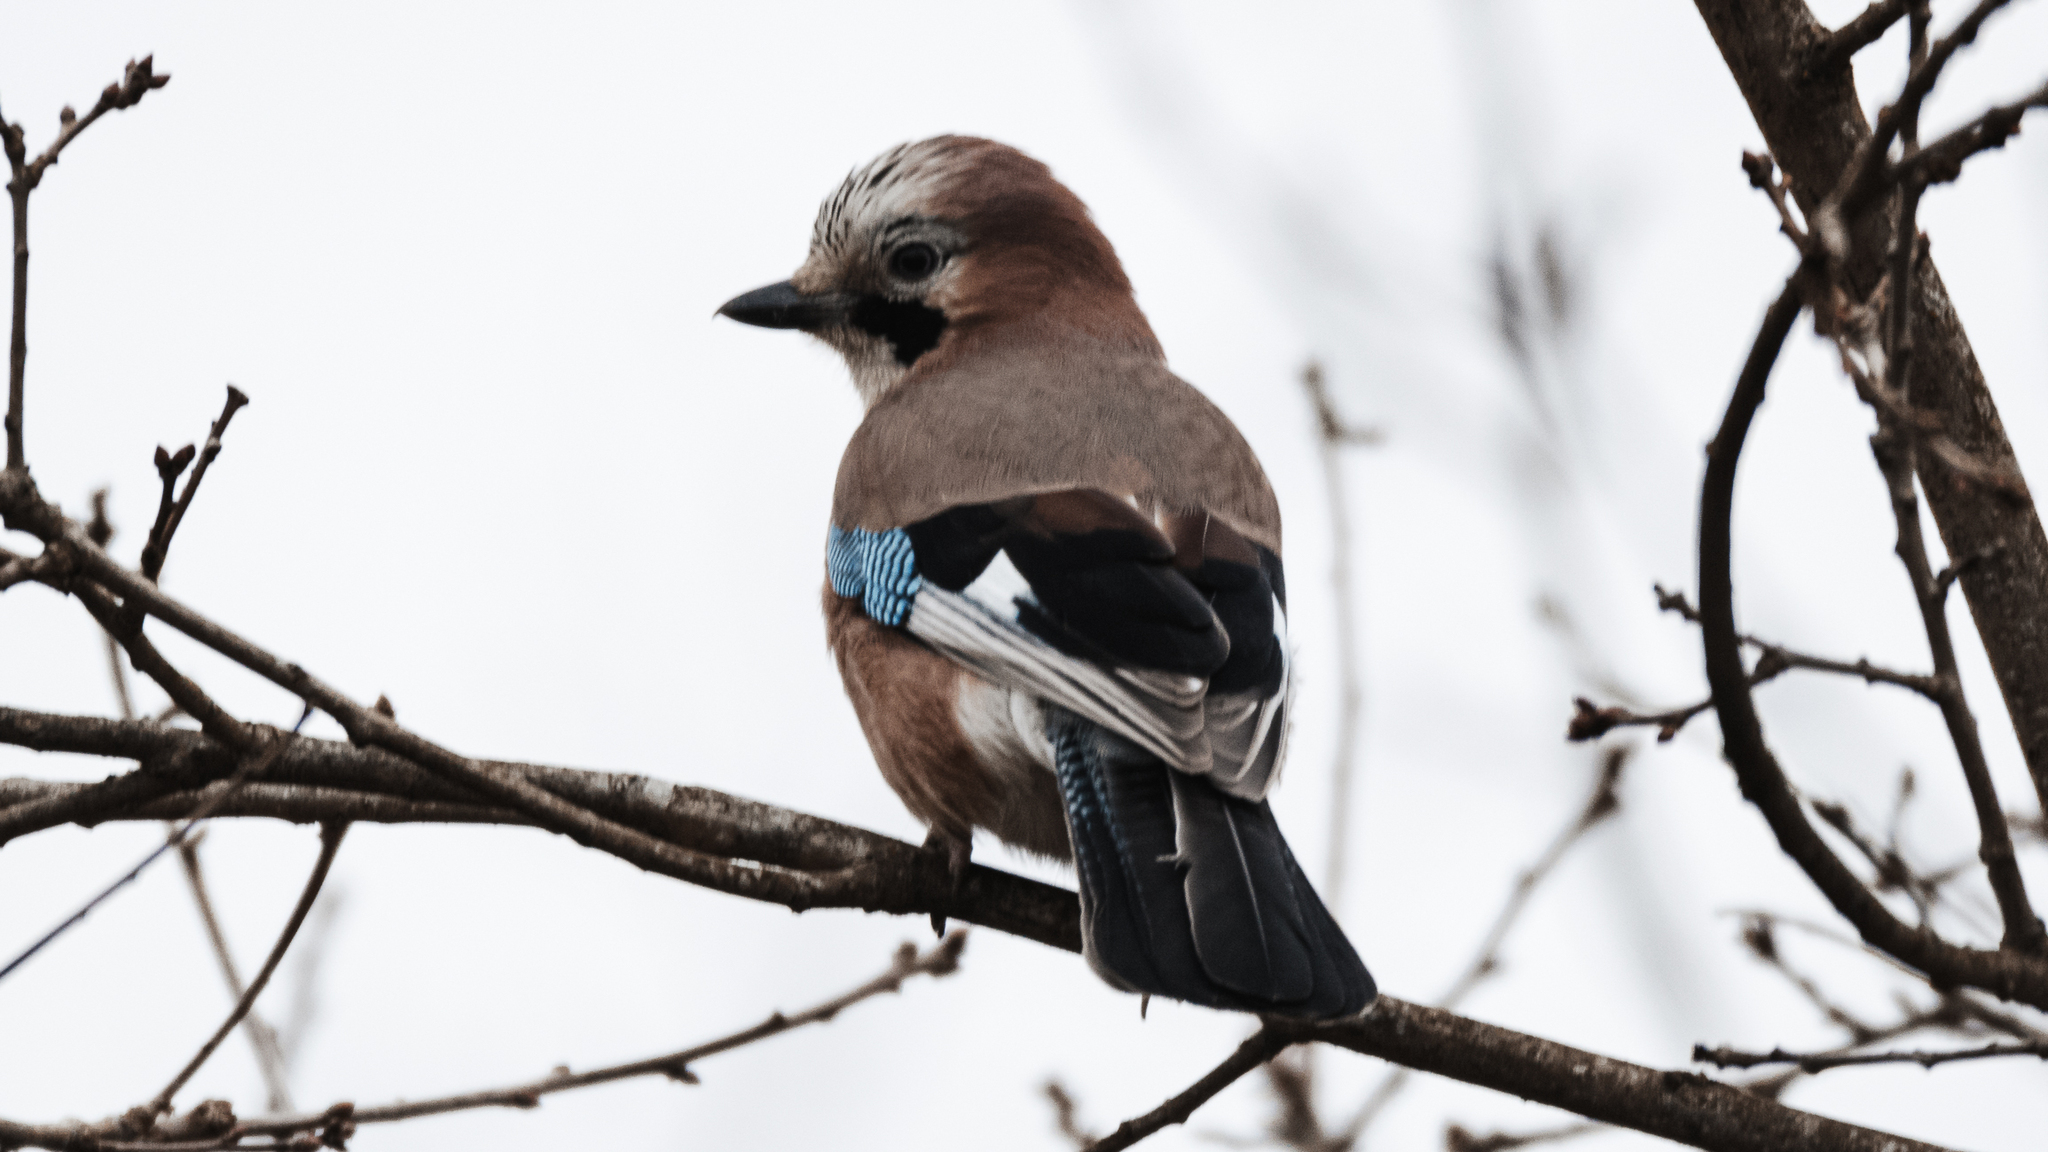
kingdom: Animalia
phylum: Chordata
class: Aves
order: Passeriformes
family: Corvidae
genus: Garrulus
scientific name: Garrulus glandarius
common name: Eurasian jay
